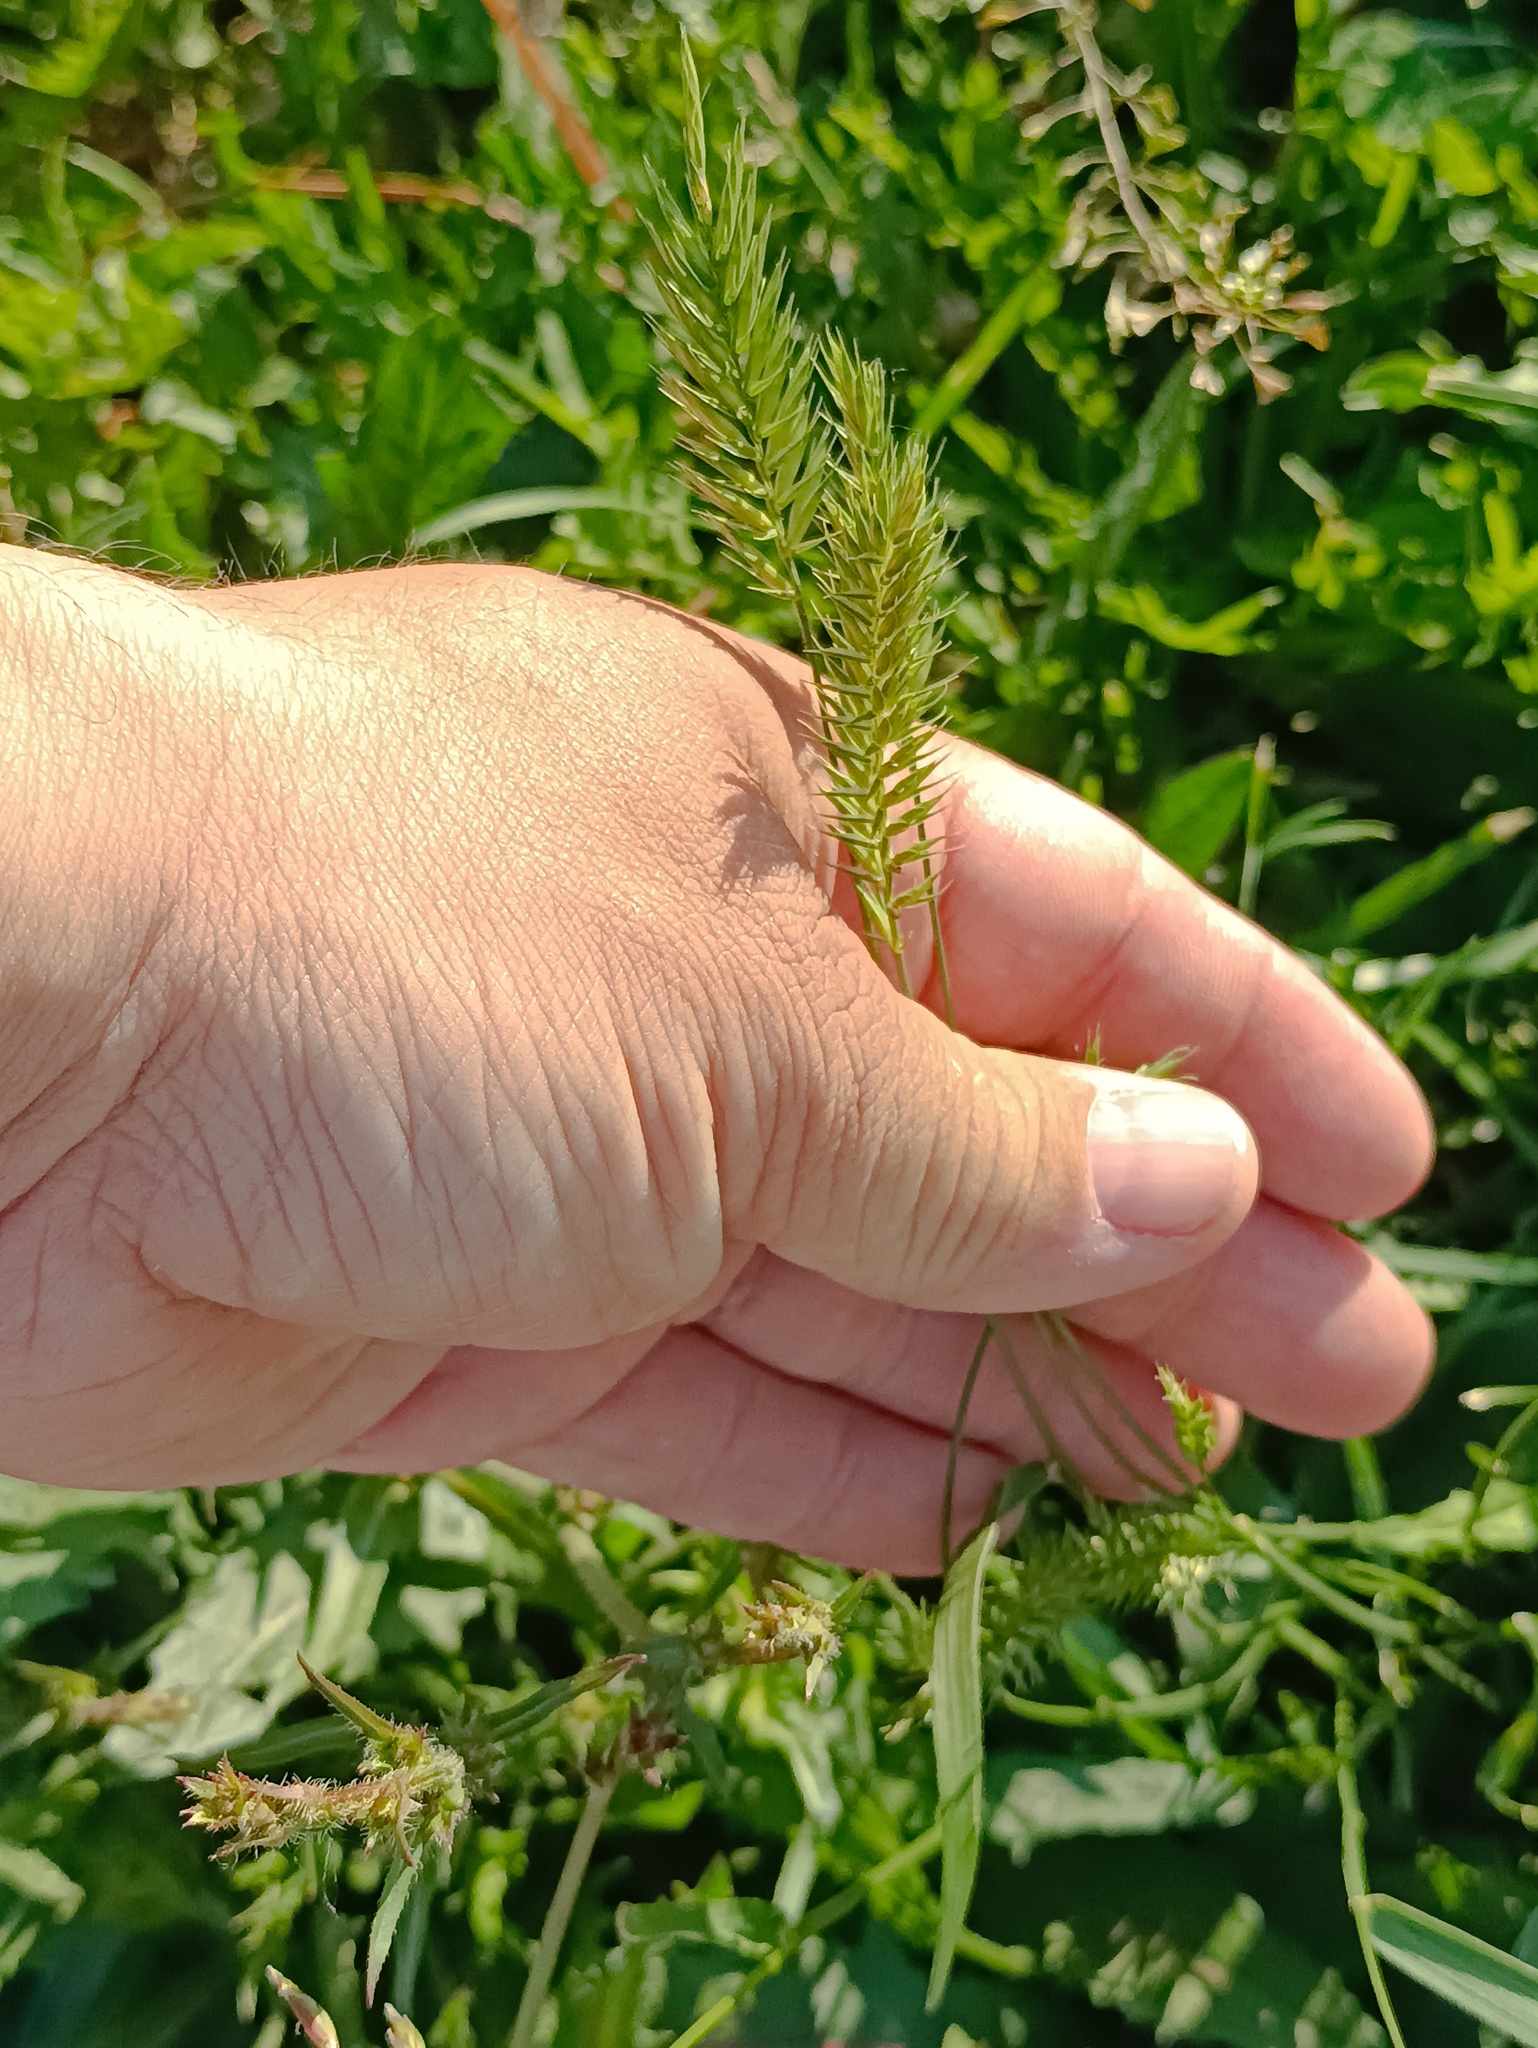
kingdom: Plantae
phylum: Tracheophyta
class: Liliopsida
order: Poales
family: Poaceae
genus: Agropyron
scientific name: Agropyron cristatum
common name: Crested wheatgrass
